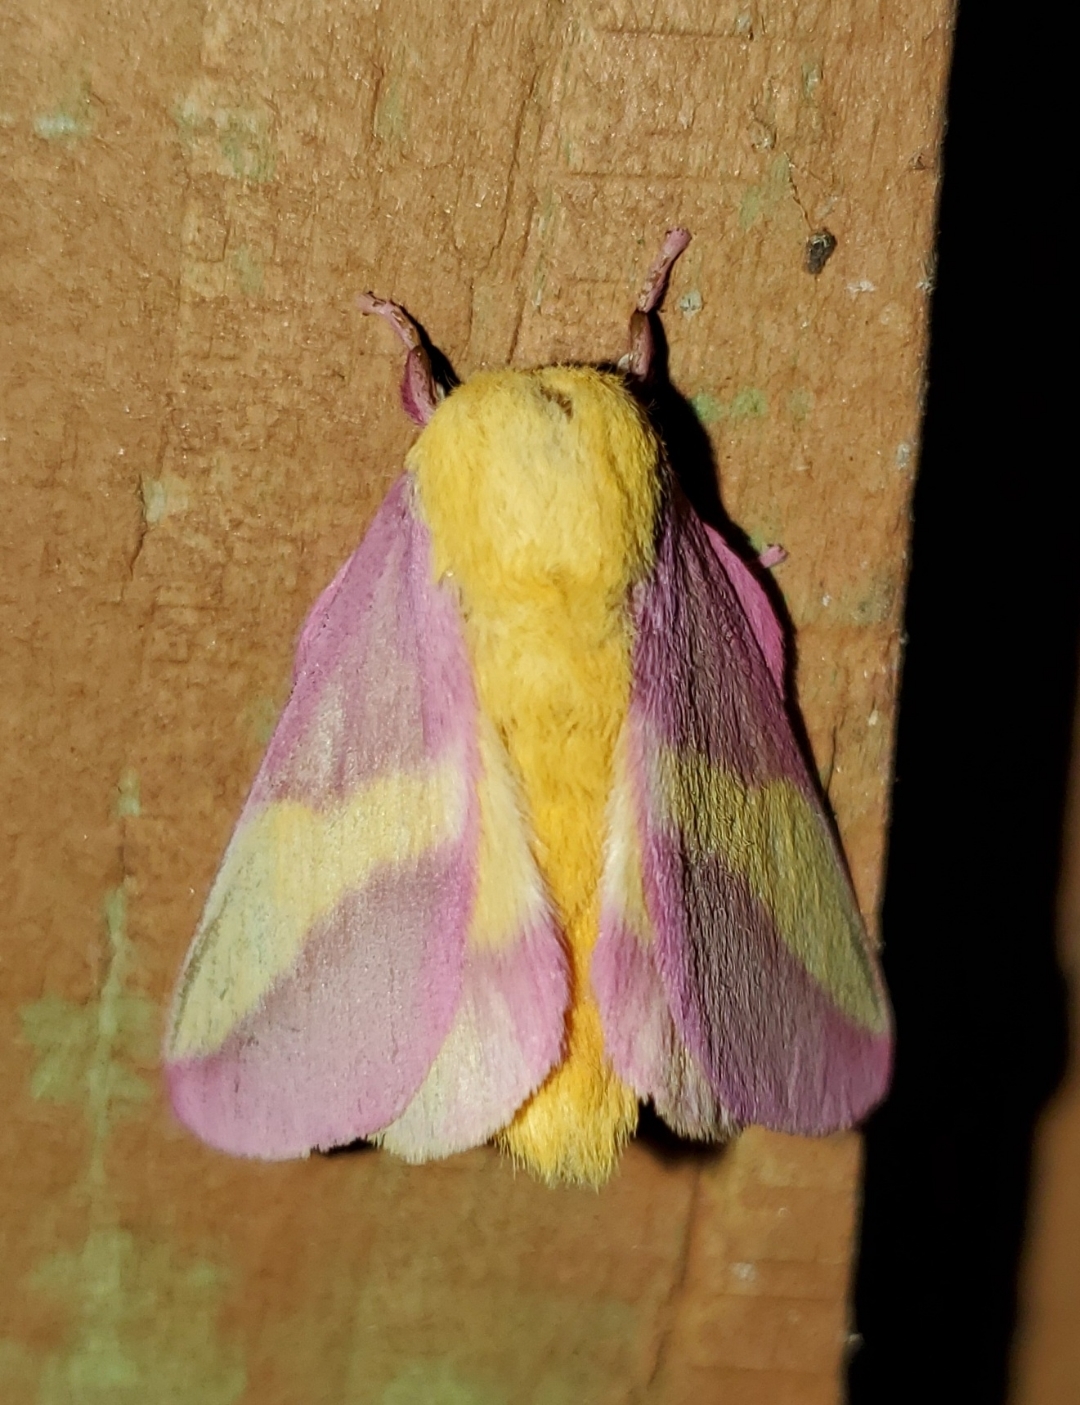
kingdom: Animalia
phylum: Arthropoda
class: Insecta
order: Lepidoptera
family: Saturniidae
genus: Dryocampa
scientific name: Dryocampa rubicunda
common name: Rosy maple moth
